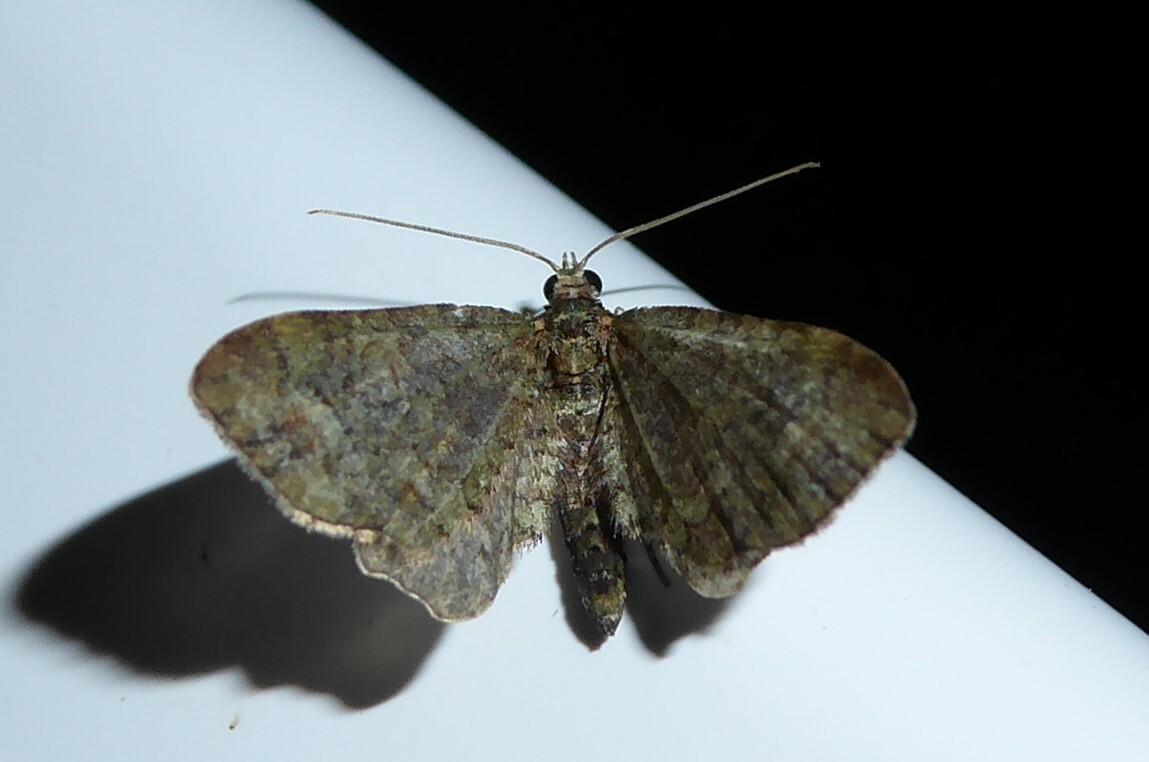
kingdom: Animalia
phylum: Arthropoda
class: Insecta
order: Lepidoptera
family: Geometridae
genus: Idaea
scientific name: Idaea mutanda
